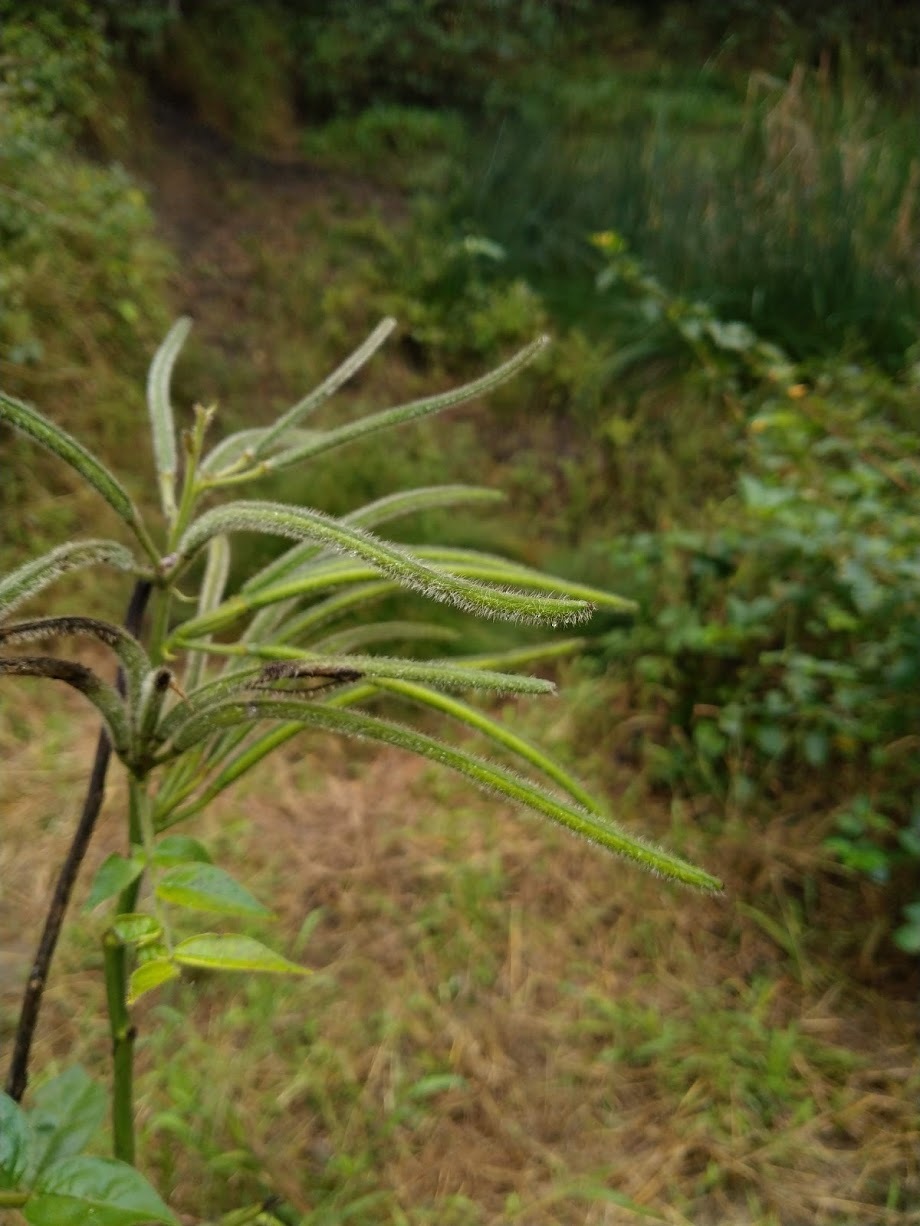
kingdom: Plantae
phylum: Tracheophyta
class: Magnoliopsida
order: Fabales
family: Fabaceae
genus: Senna
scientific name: Senna hirsuta
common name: Woolly senna
